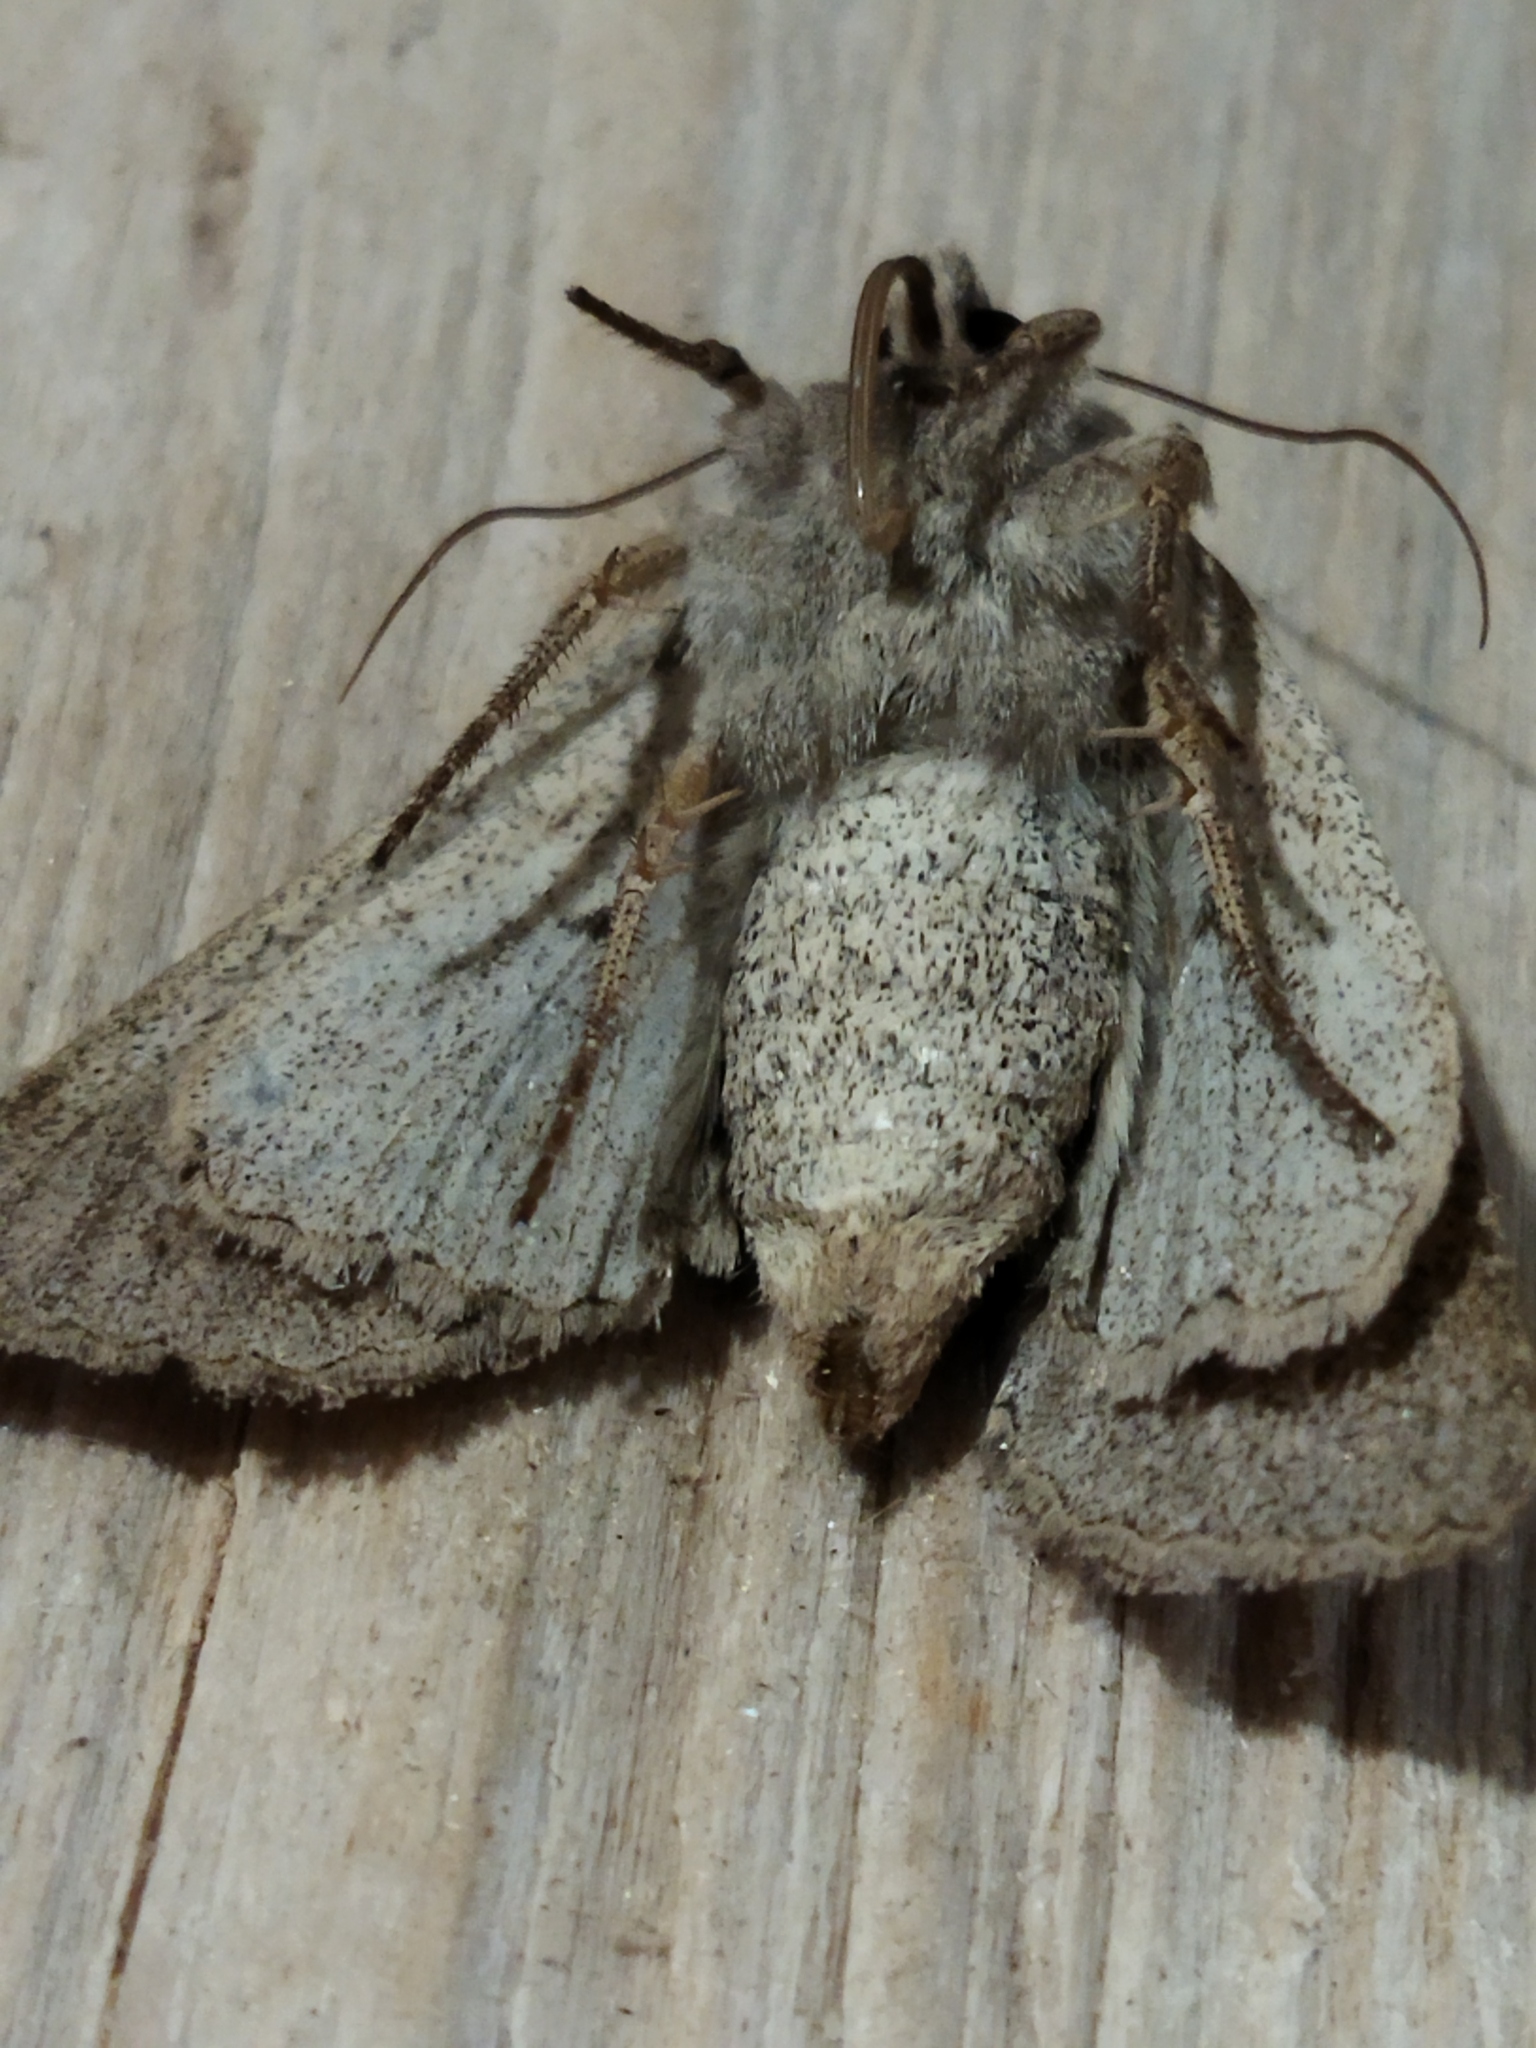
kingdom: Animalia
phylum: Arthropoda
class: Insecta
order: Lepidoptera
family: Noctuidae
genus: Ammoconia
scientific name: Ammoconia caecimacula
